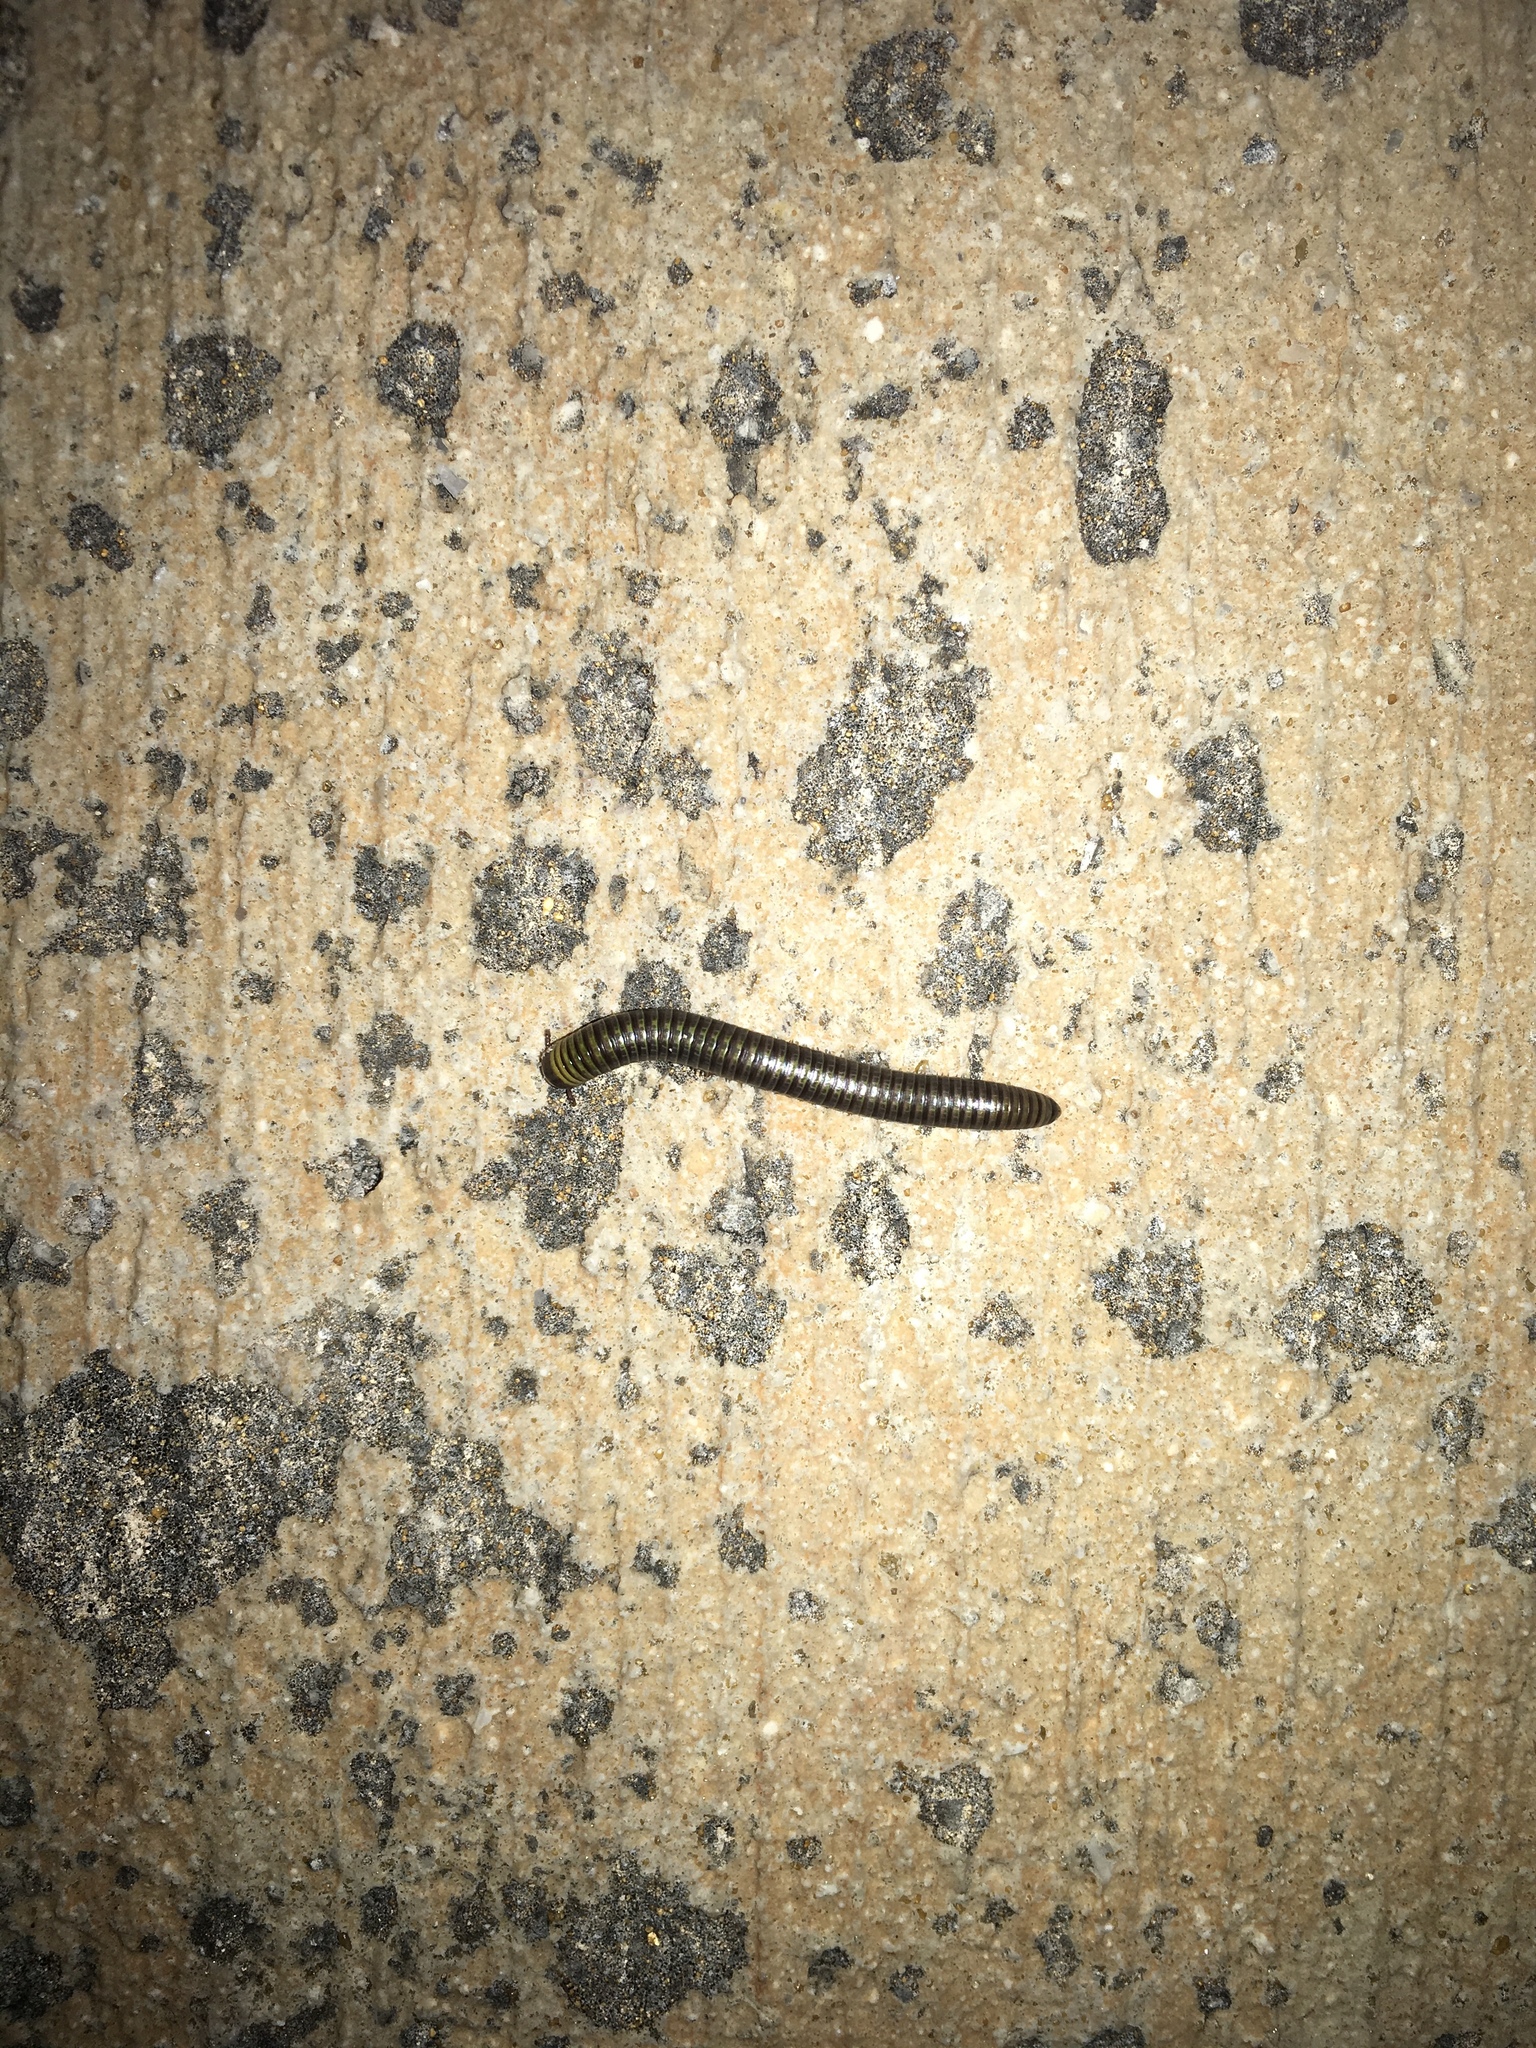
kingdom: Animalia
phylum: Arthropoda
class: Diplopoda
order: Spirobolida
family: Rhinocricidae
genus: Anadenobolus
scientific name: Anadenobolus monilicornis
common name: Caribbean millipede
